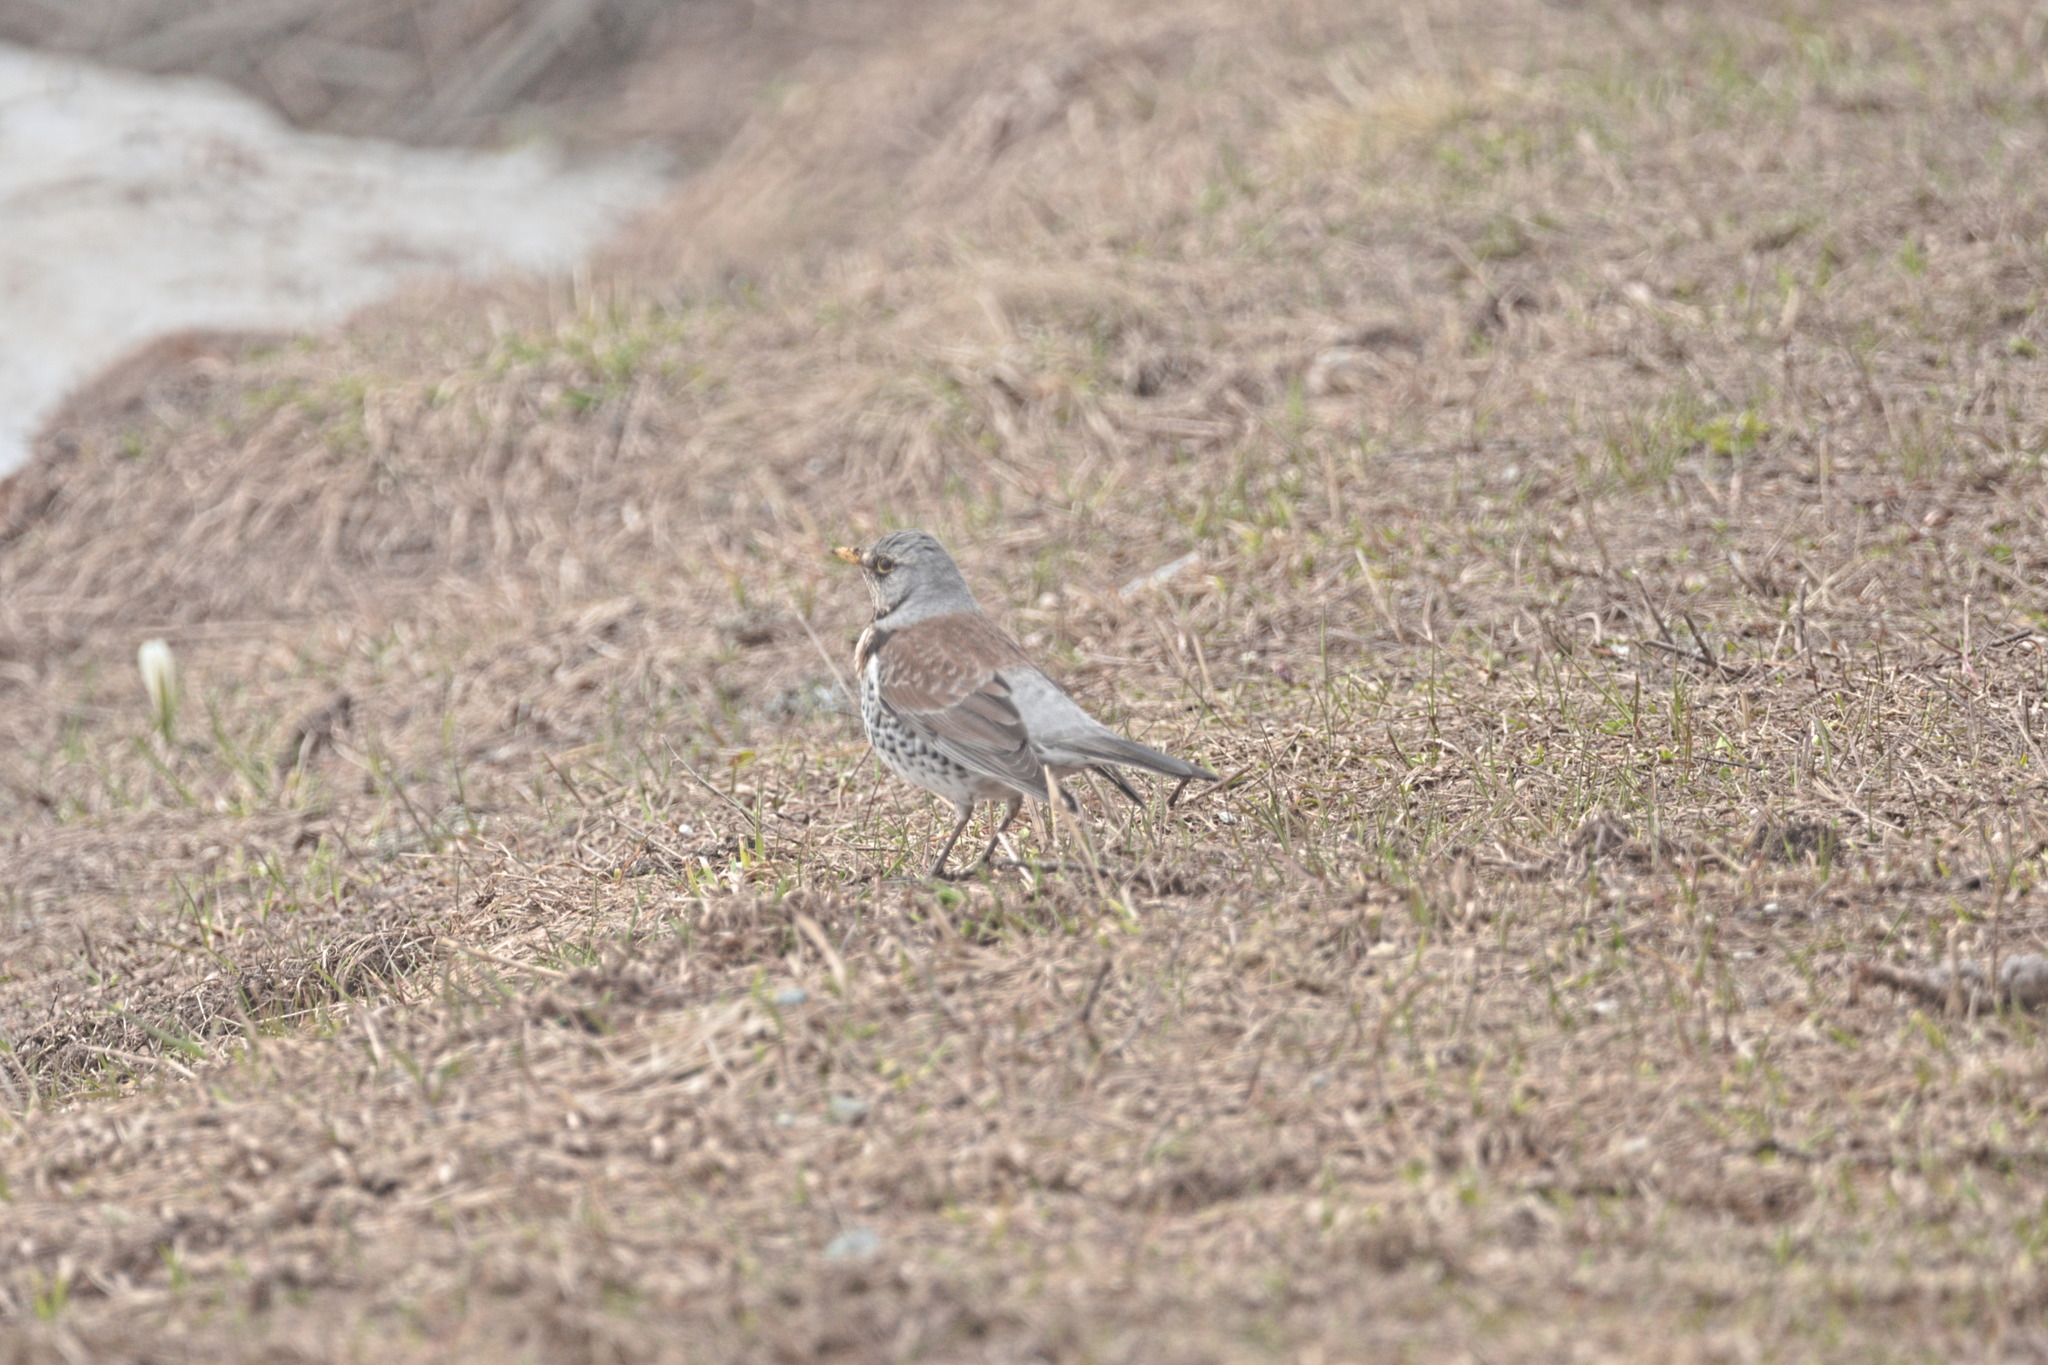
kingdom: Animalia
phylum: Chordata
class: Aves
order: Passeriformes
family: Turdidae
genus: Turdus
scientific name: Turdus pilaris
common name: Fieldfare
